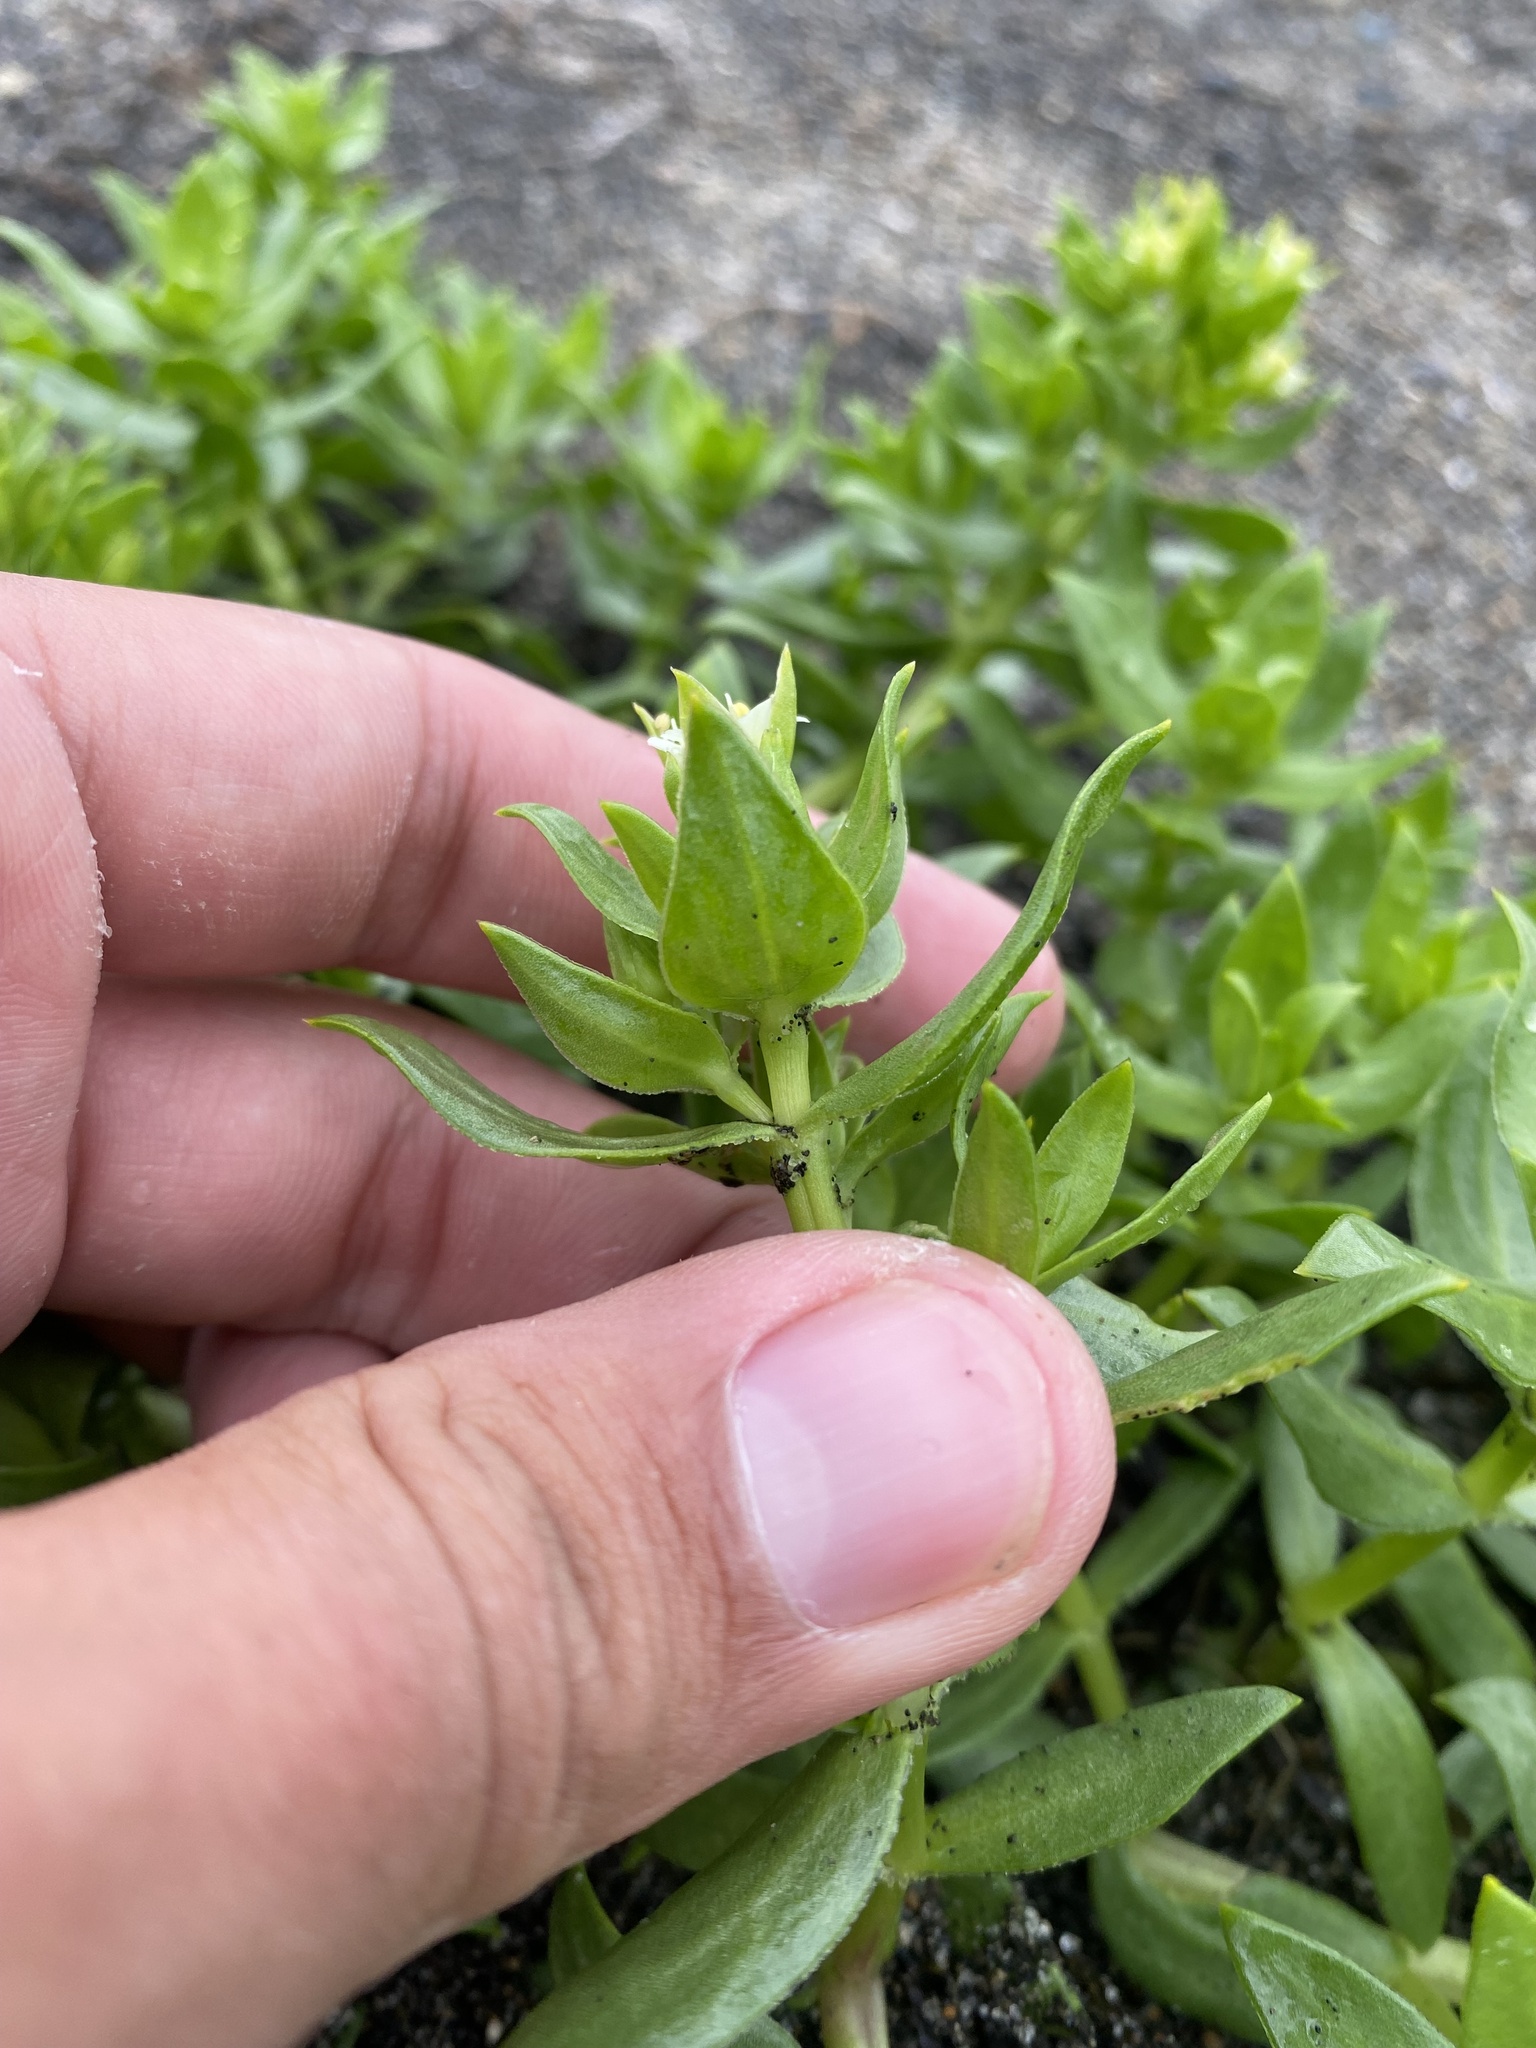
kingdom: Plantae
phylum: Tracheophyta
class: Magnoliopsida
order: Caryophyllales
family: Caryophyllaceae
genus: Honckenya
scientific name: Honckenya peploides
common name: Sea sandwort
